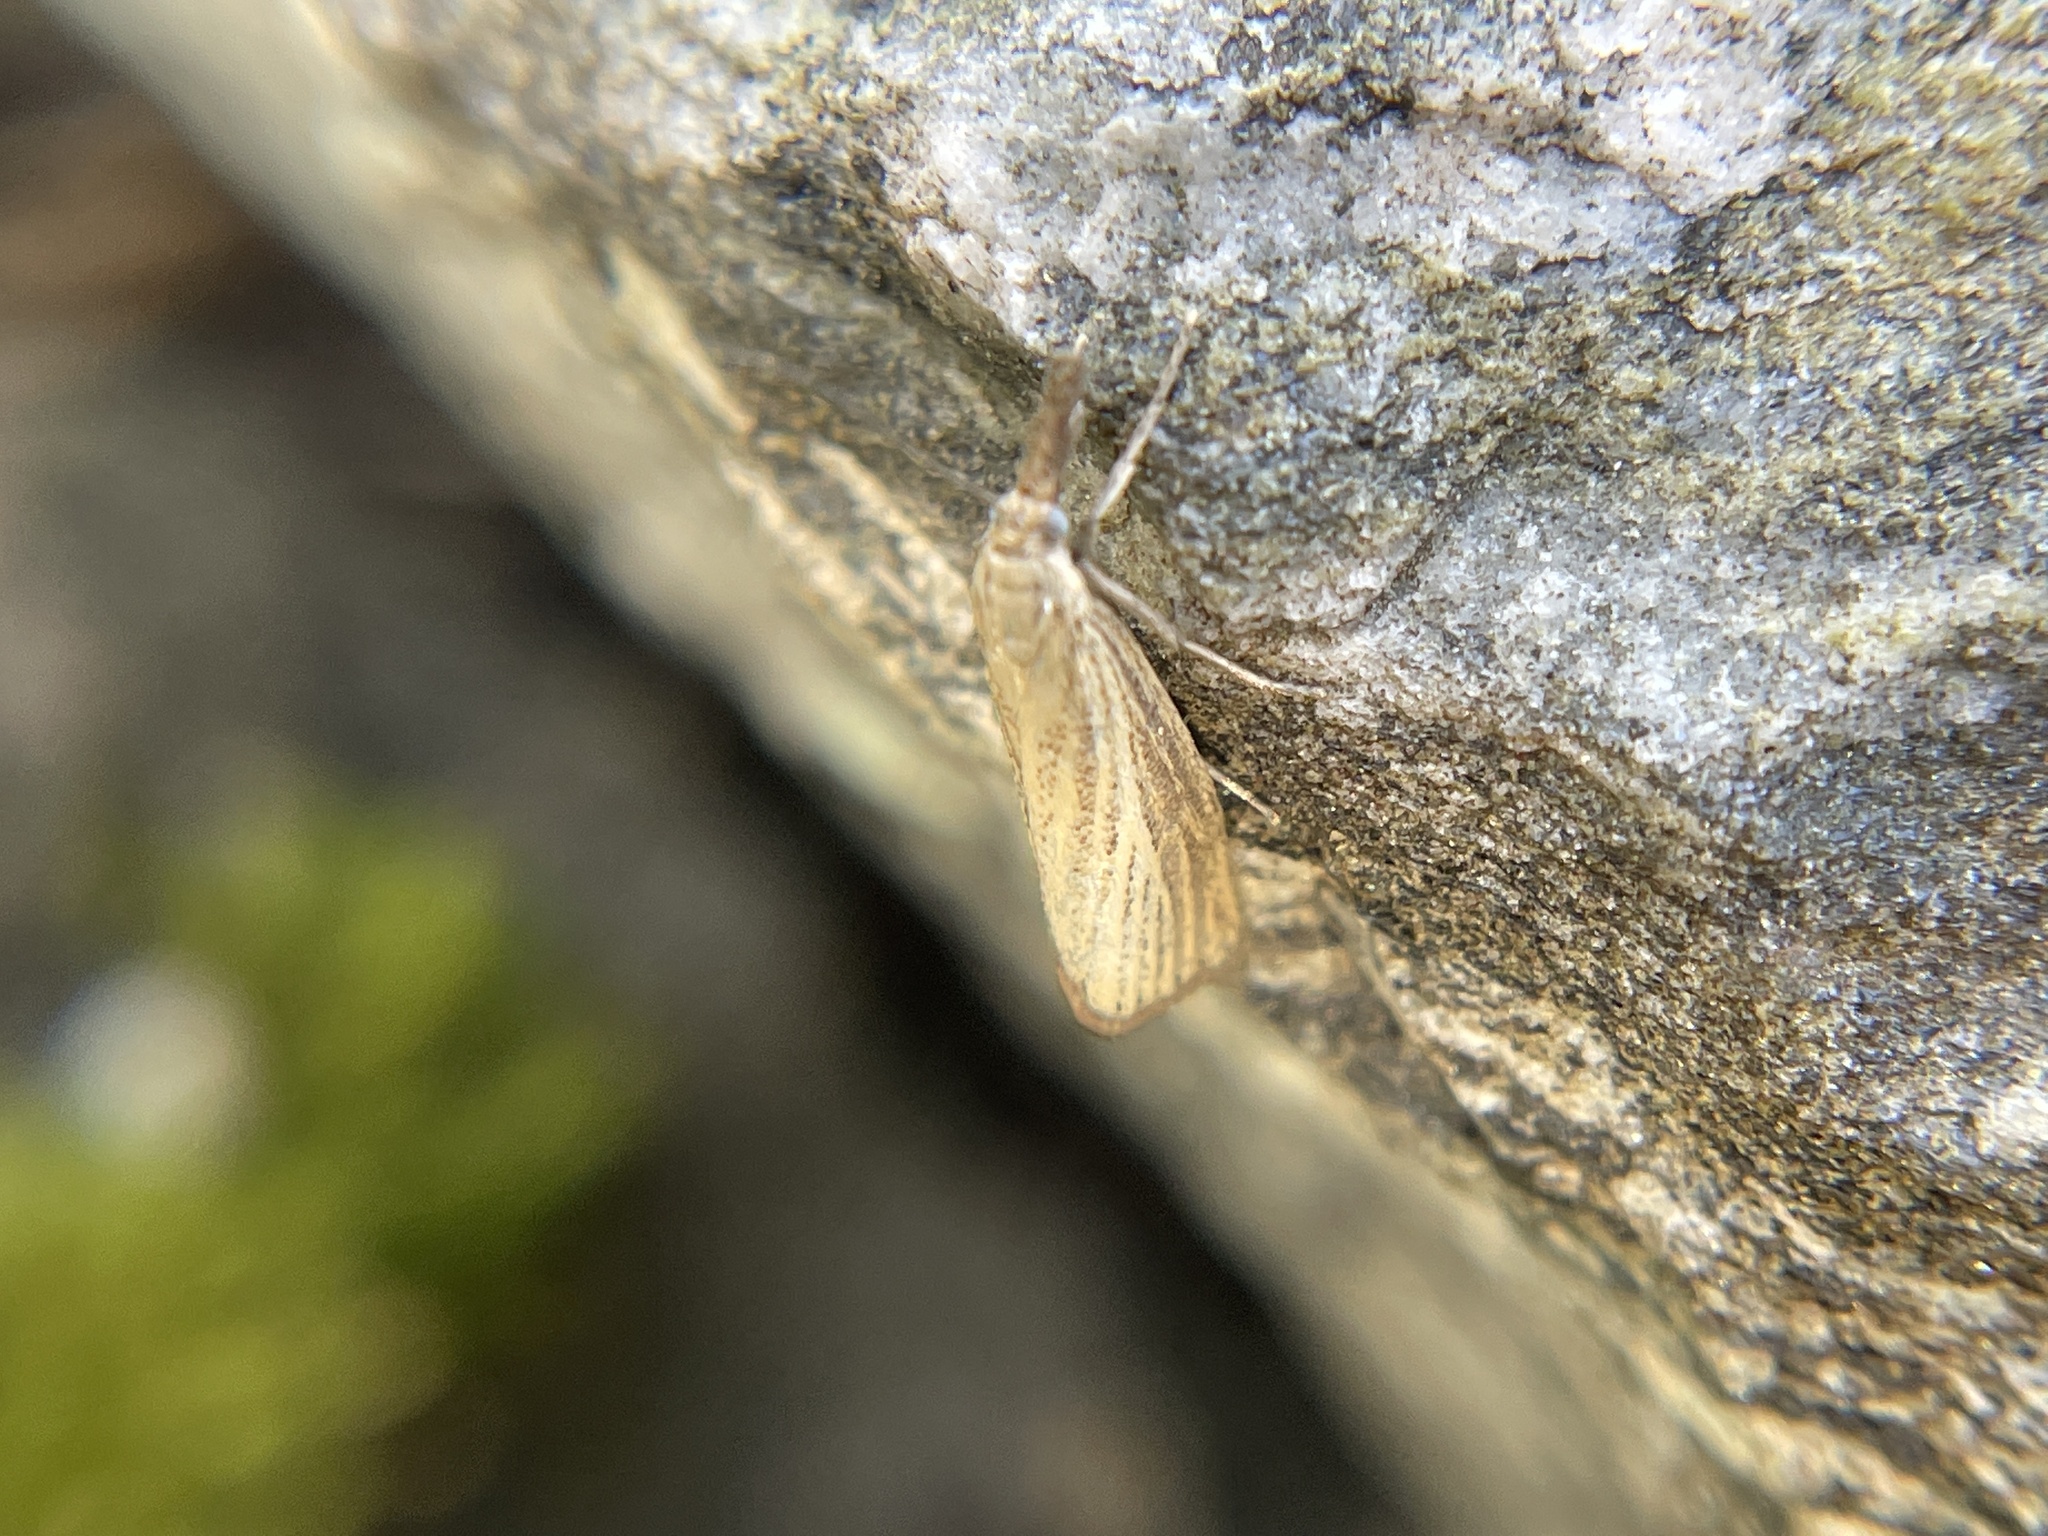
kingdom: Animalia
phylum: Arthropoda
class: Insecta
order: Lepidoptera
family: Crambidae
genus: Agriphila
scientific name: Agriphila straminella
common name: Straw grass-veneer
